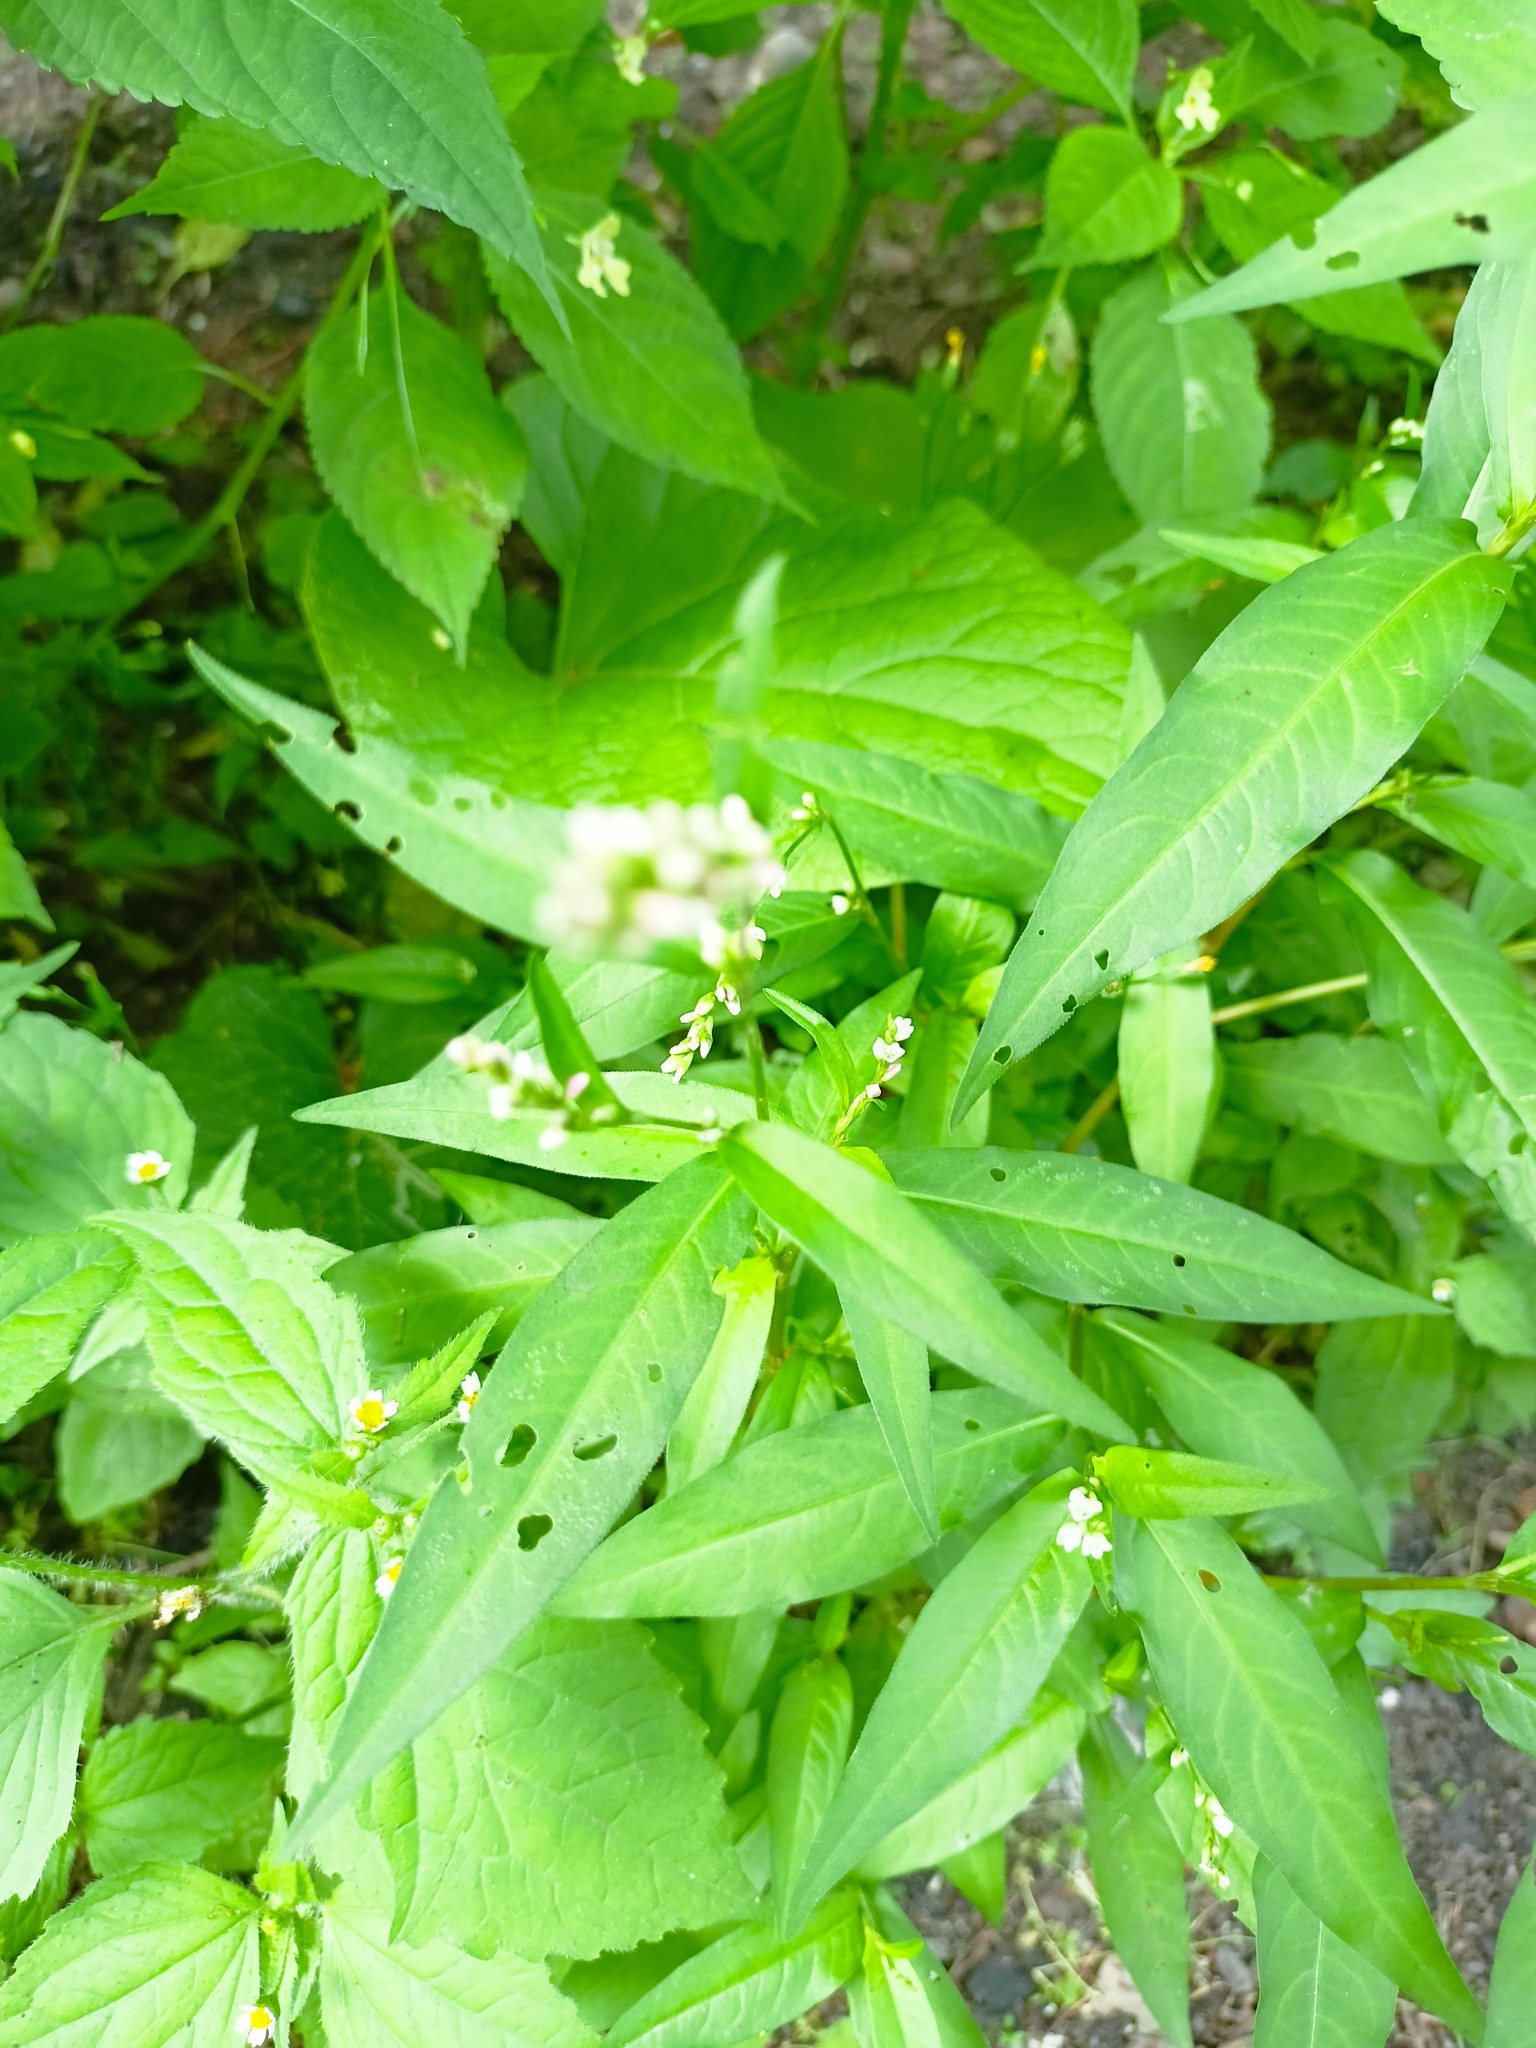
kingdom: Plantae
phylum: Tracheophyta
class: Magnoliopsida
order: Caryophyllales
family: Polygonaceae
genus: Persicaria
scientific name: Persicaria hydropiper
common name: Water-pepper
